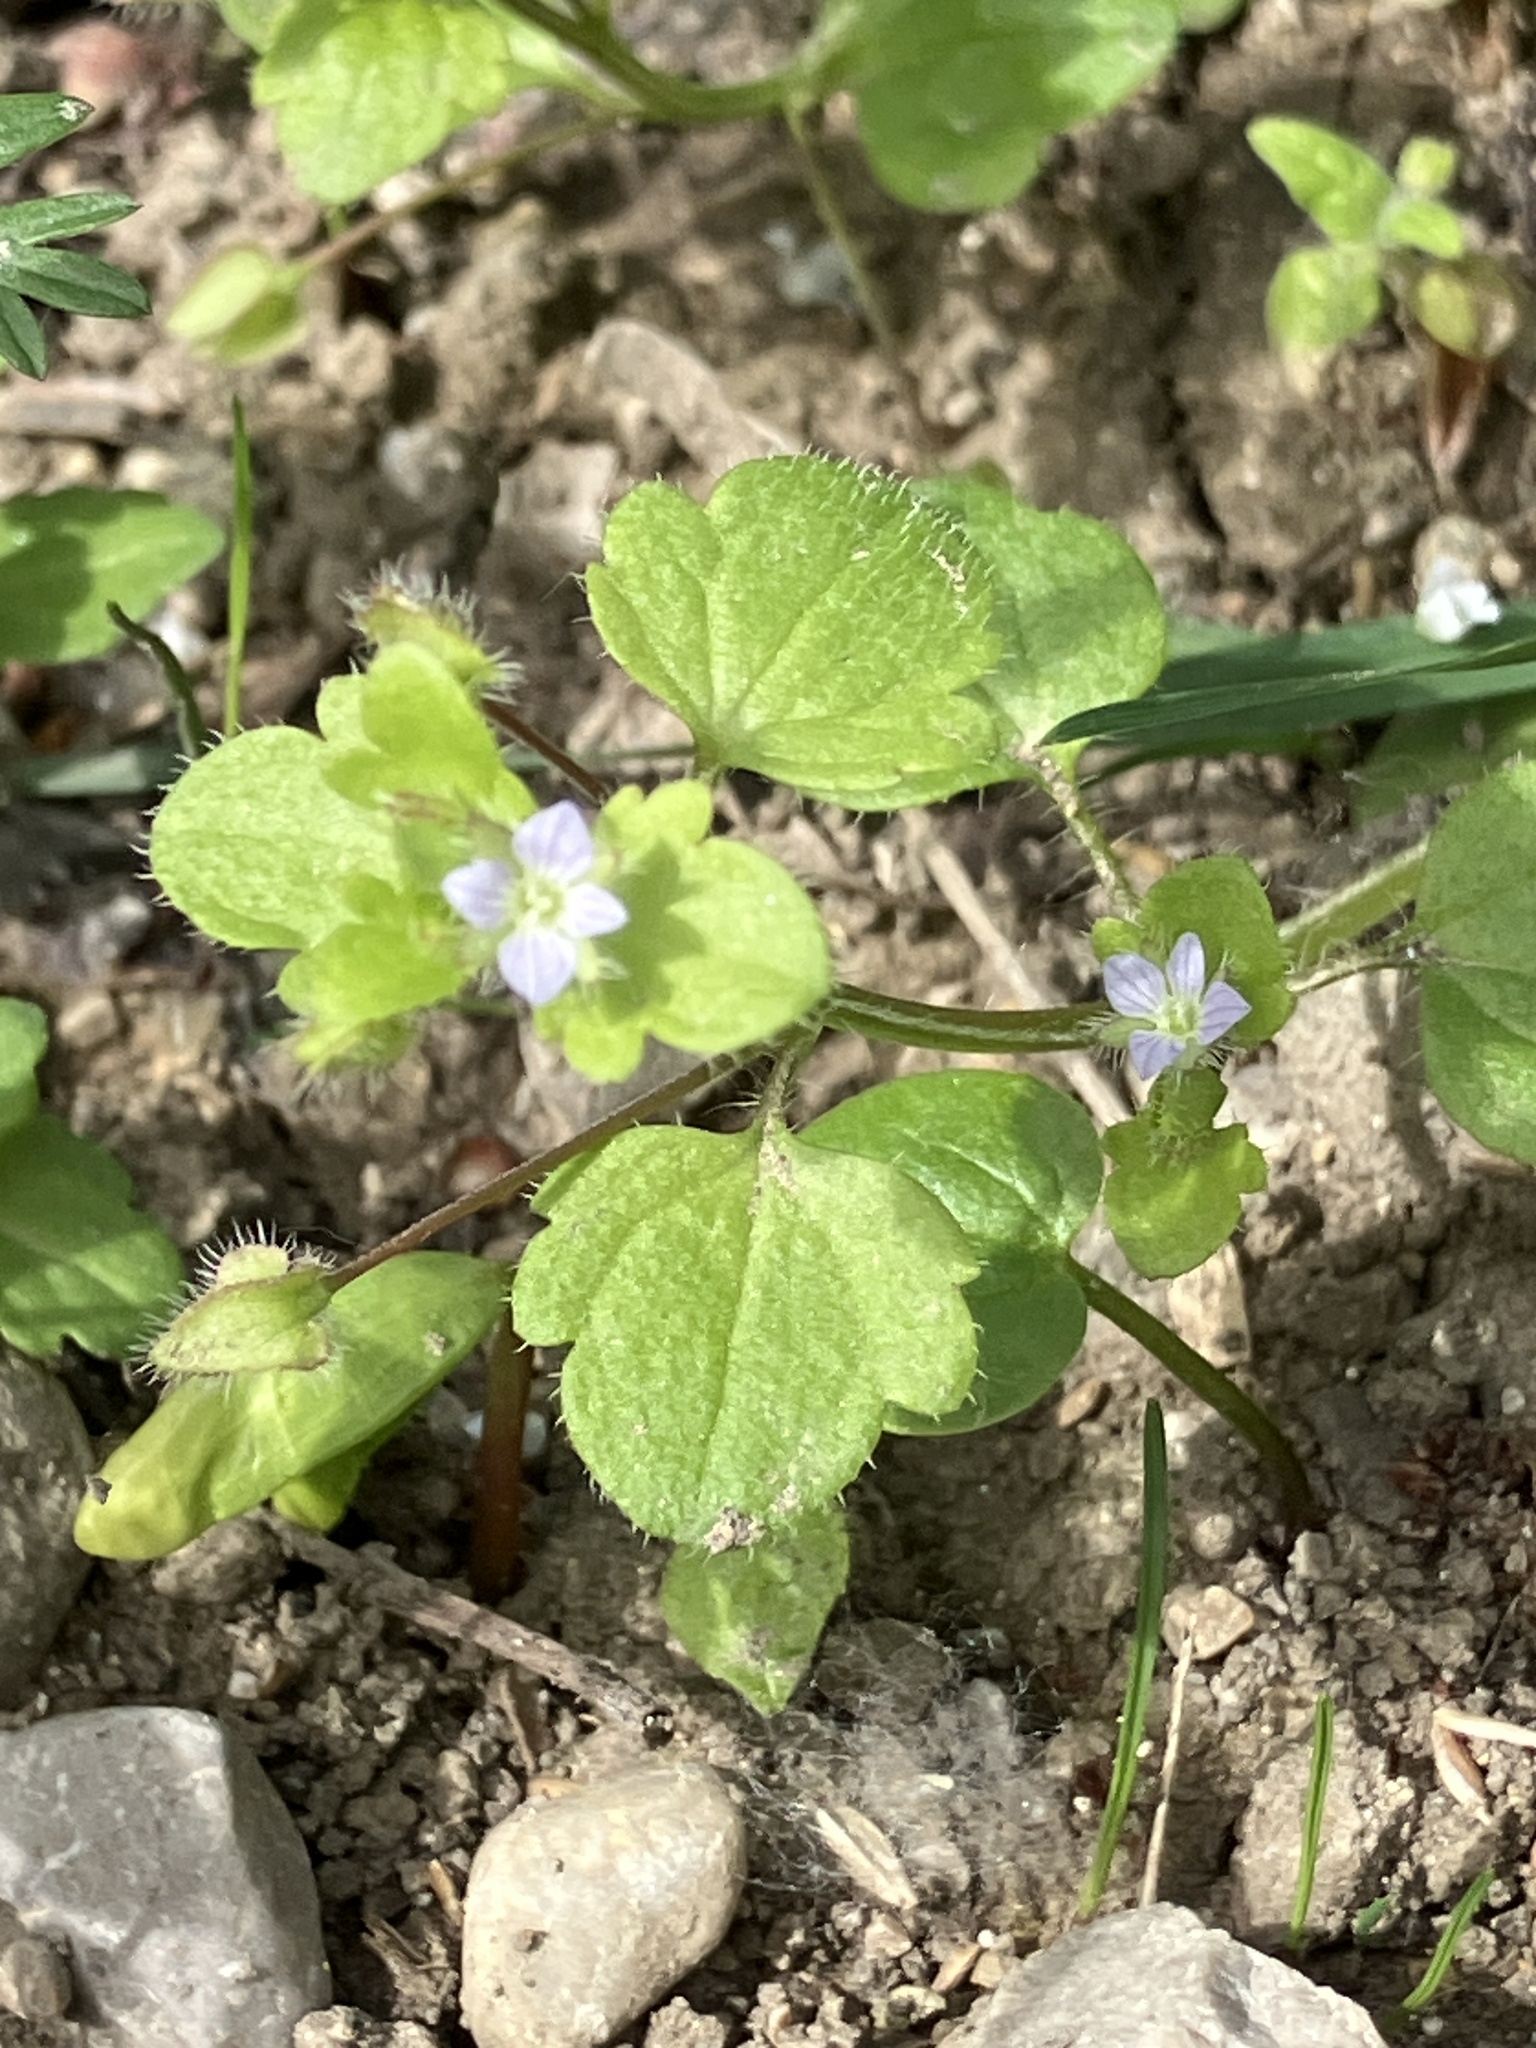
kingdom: Plantae
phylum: Tracheophyta
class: Magnoliopsida
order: Lamiales
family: Plantaginaceae
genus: Veronica
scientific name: Veronica sublobata
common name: False ivy-leaved speedwell
